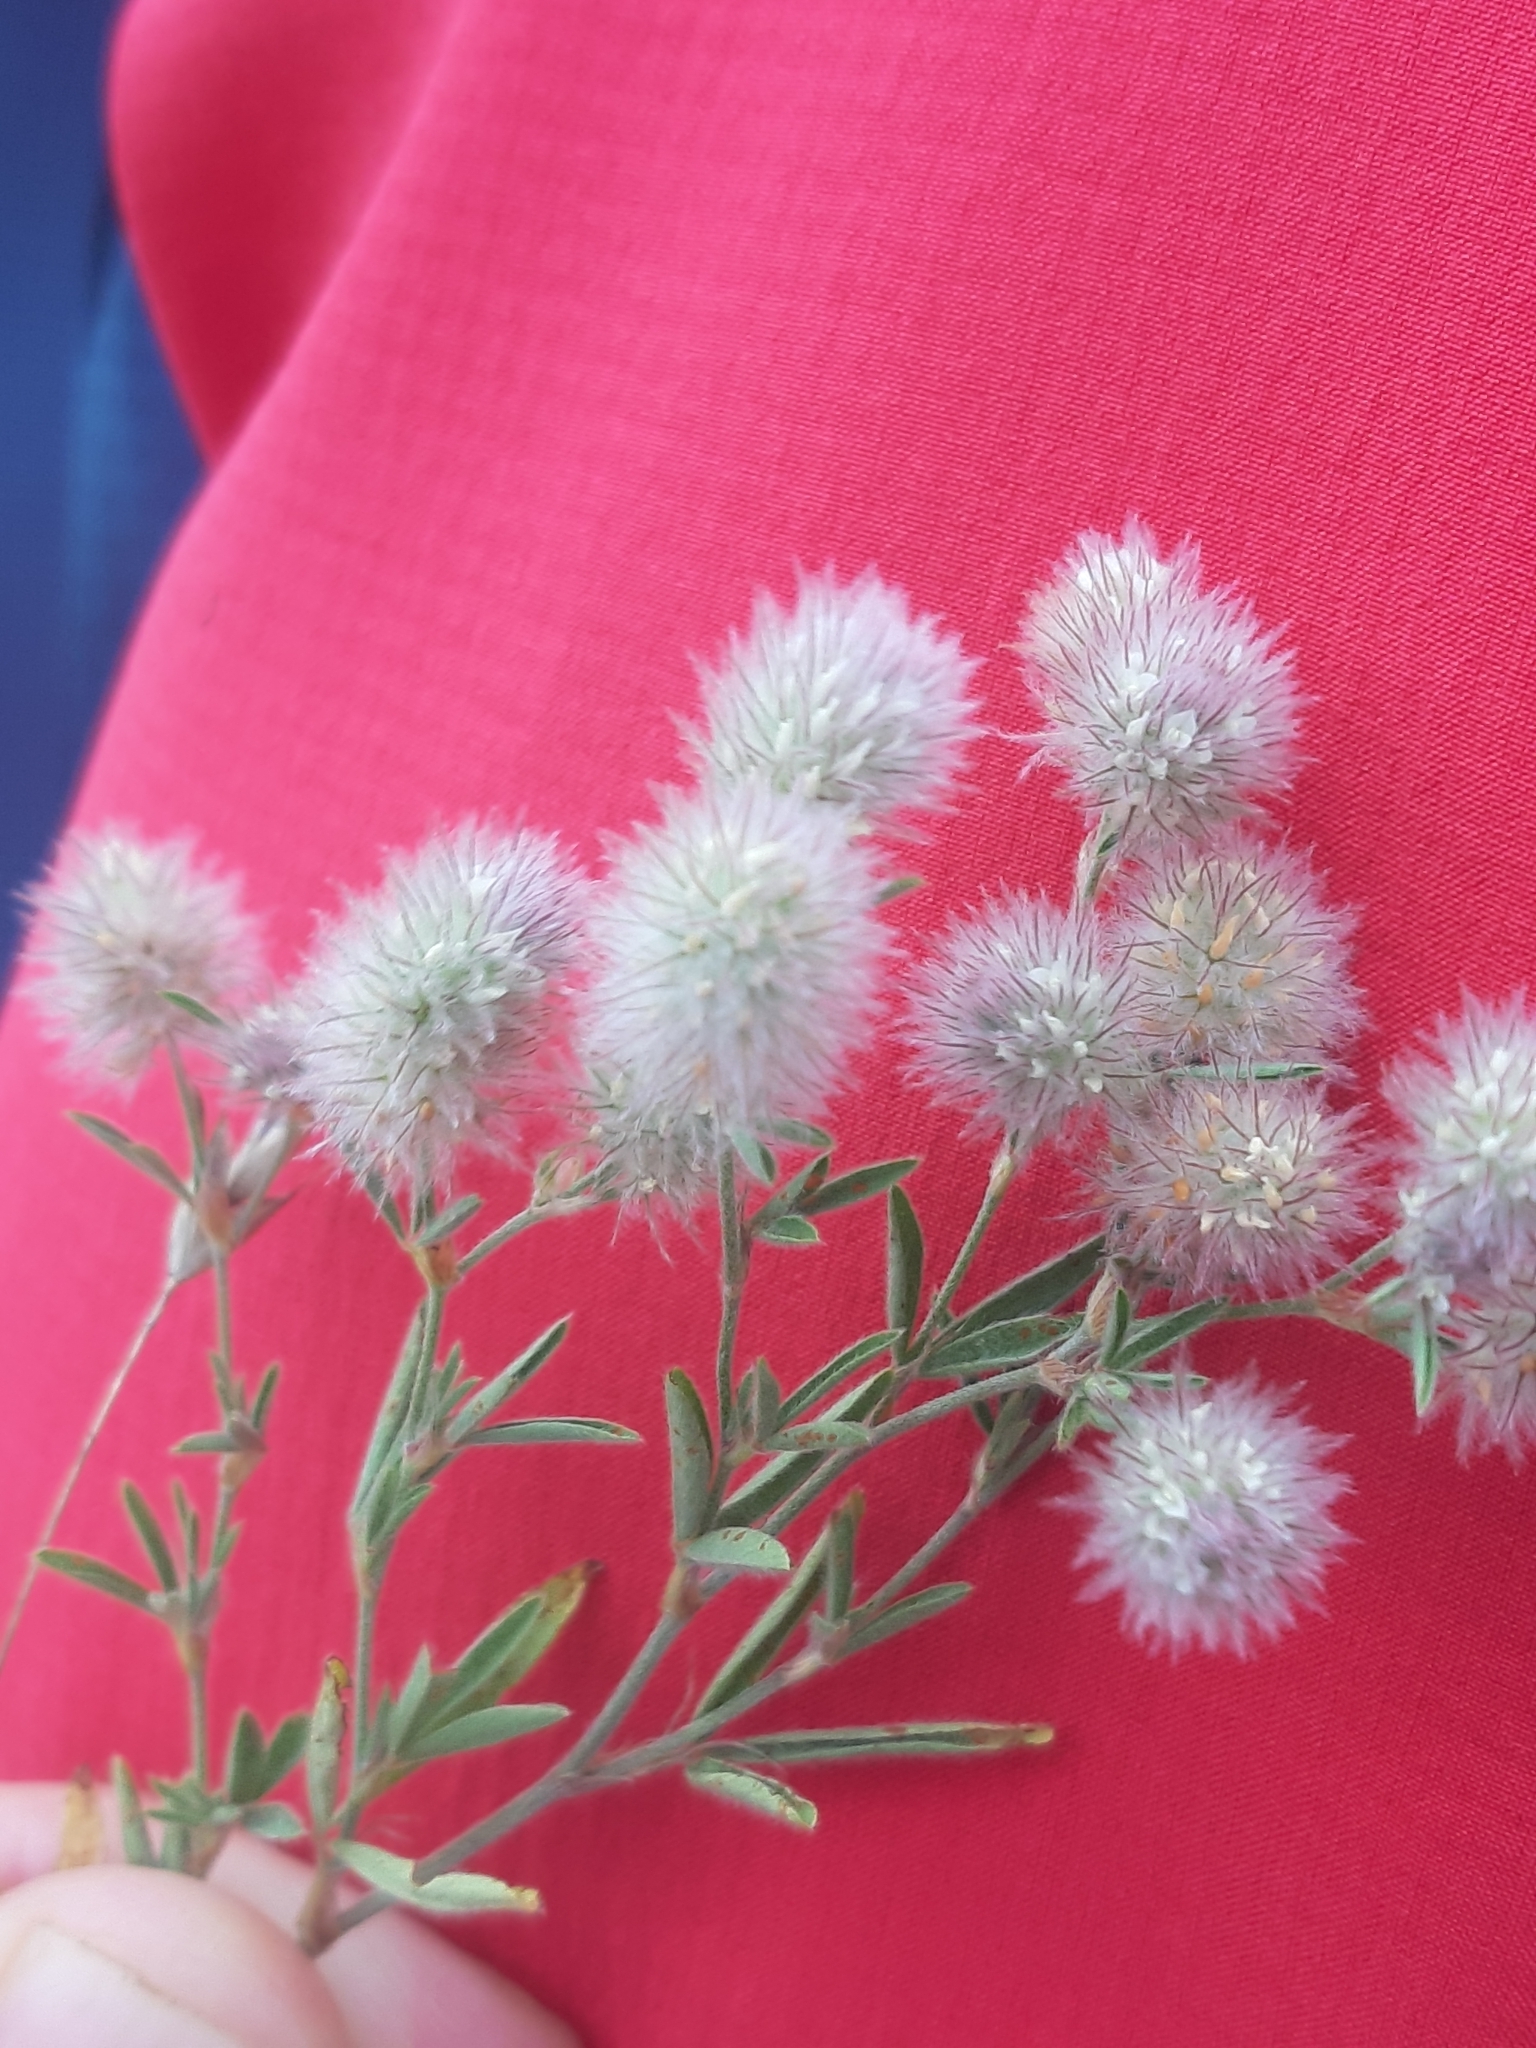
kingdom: Plantae
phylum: Tracheophyta
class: Magnoliopsida
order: Fabales
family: Fabaceae
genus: Trifolium
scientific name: Trifolium arvense
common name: Hare's-foot clover
